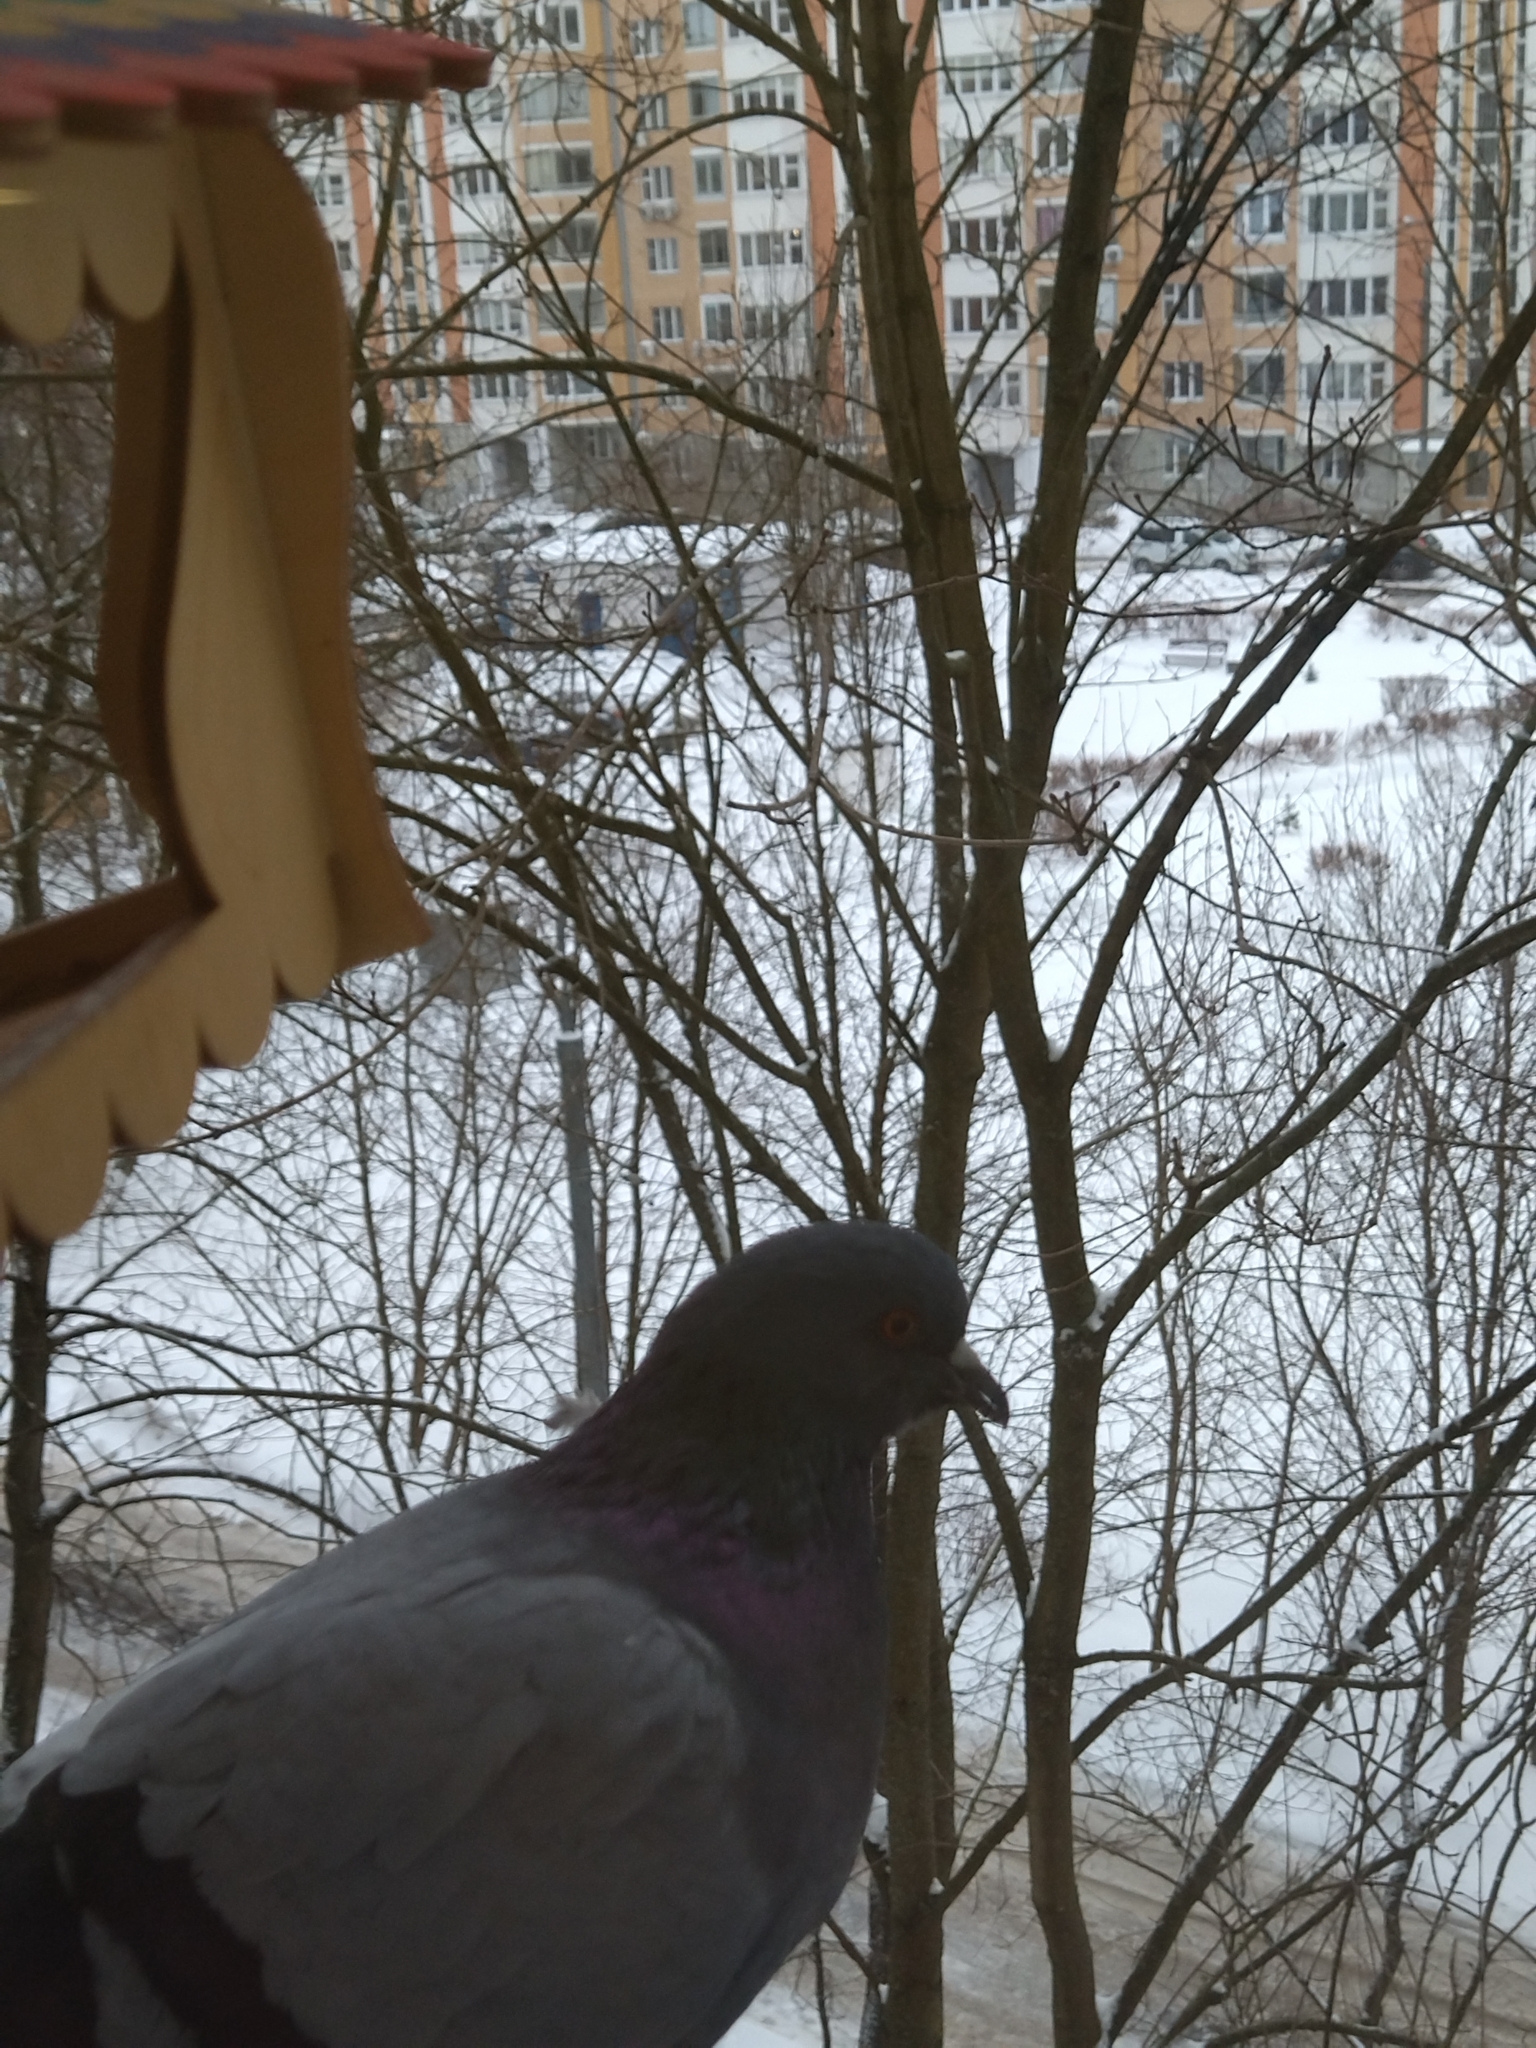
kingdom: Animalia
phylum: Chordata
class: Aves
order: Columbiformes
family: Columbidae
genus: Columba
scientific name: Columba livia
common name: Rock pigeon
